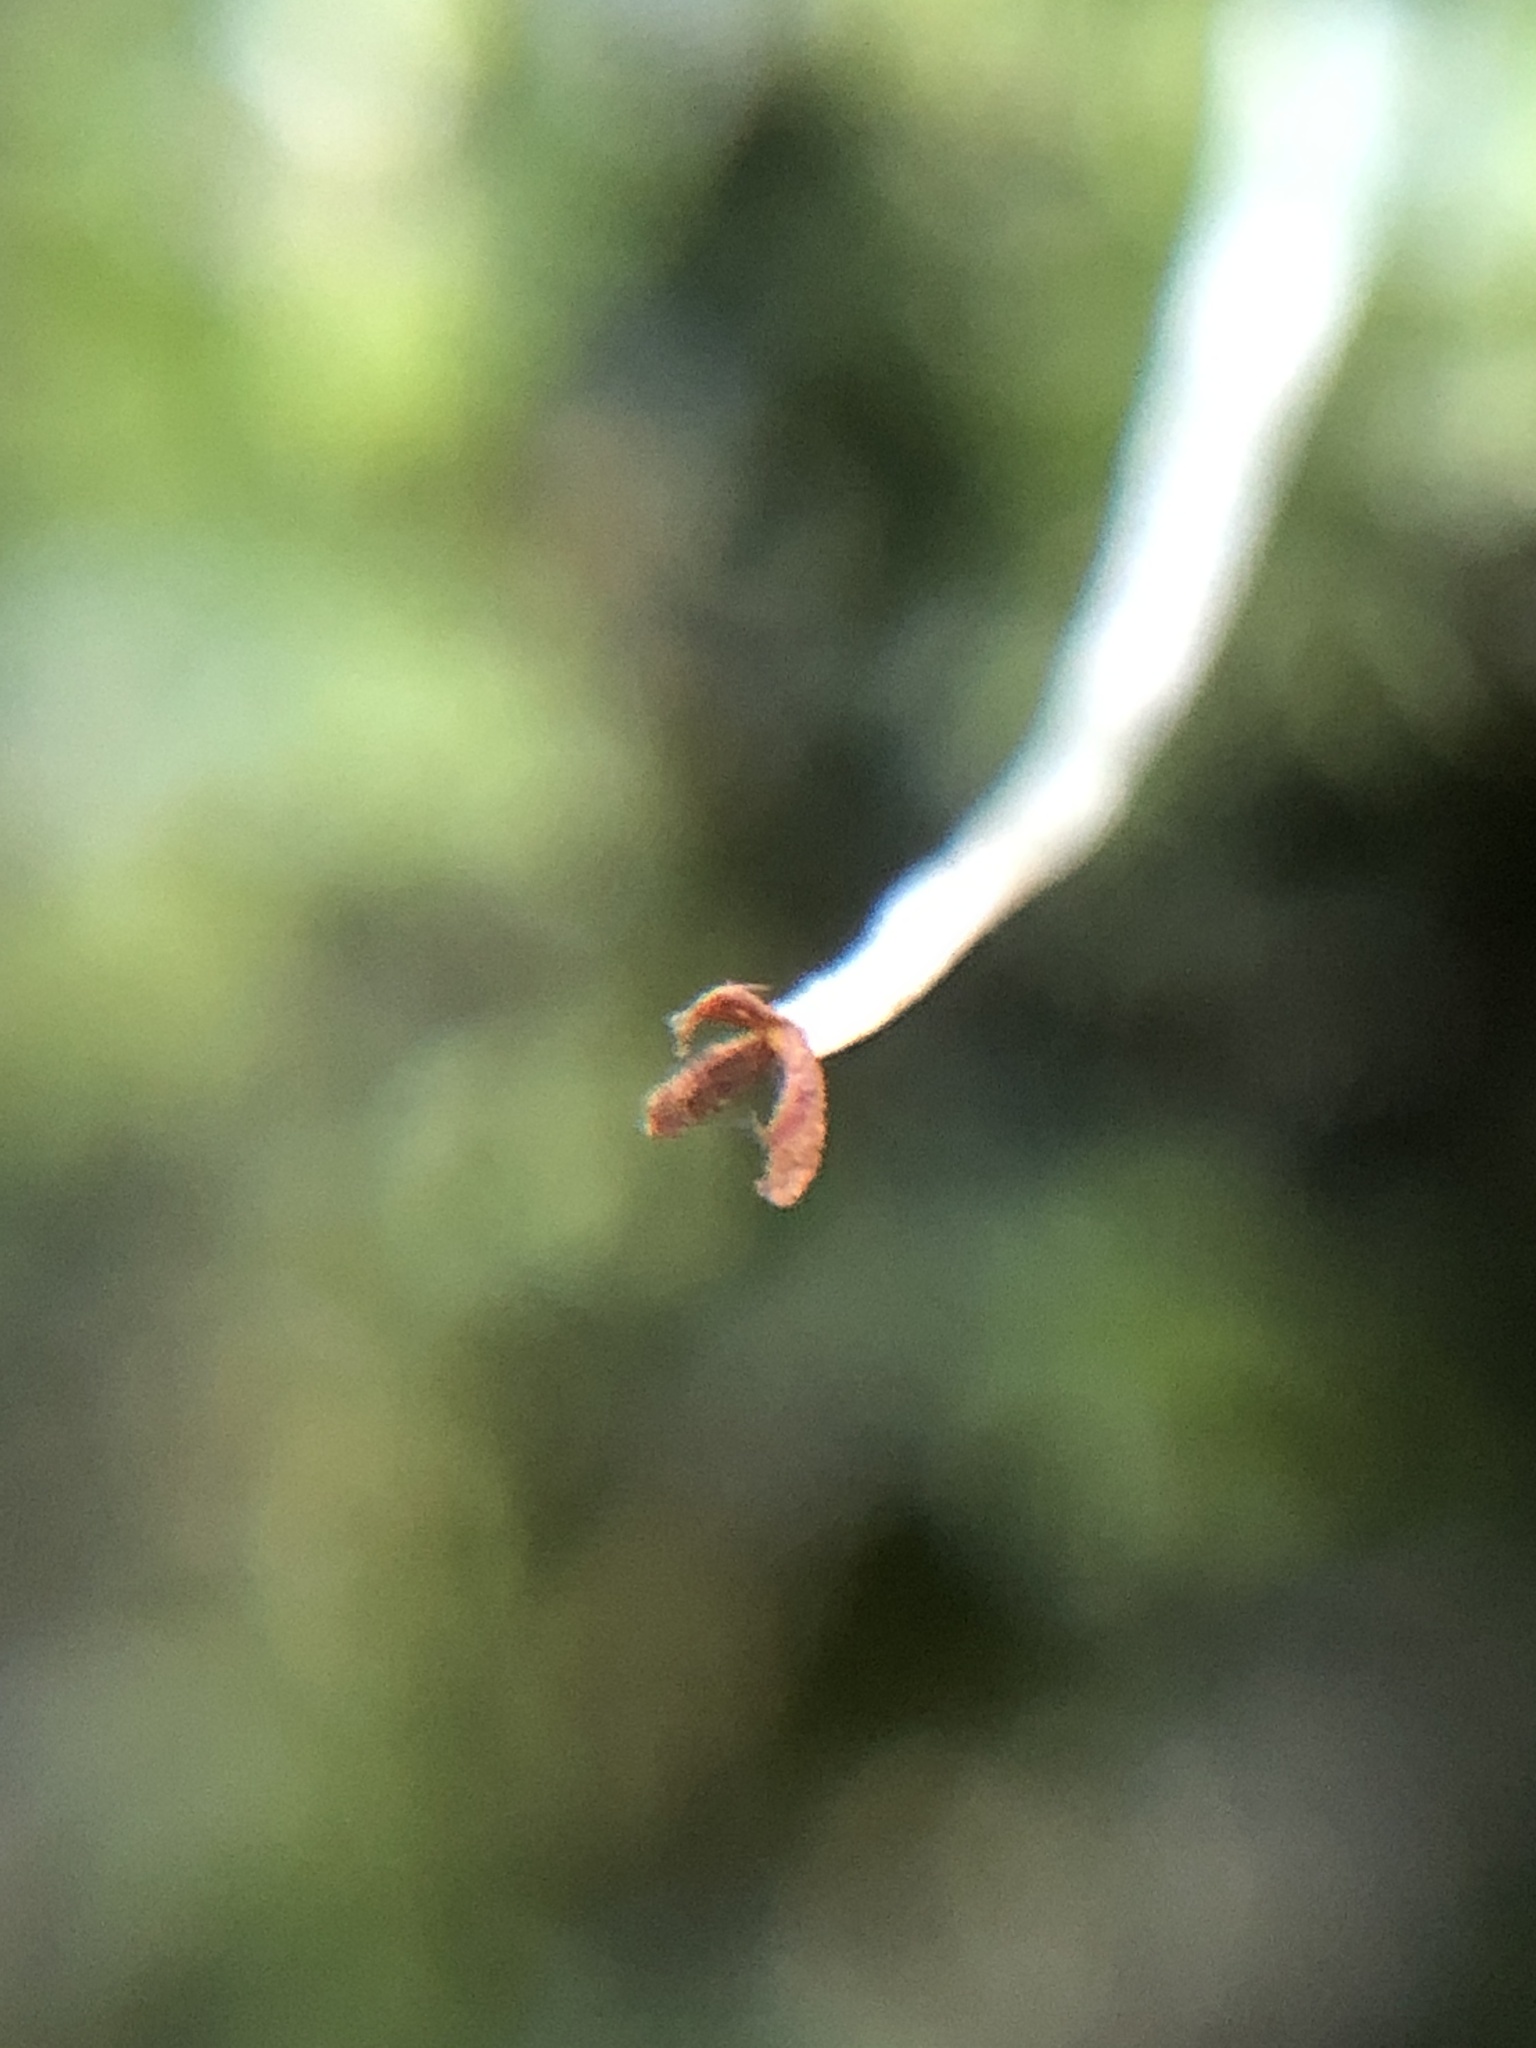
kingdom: Plantae
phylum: Marchantiophyta
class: Jungermanniopsida
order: Jungermanniales
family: Lophocoleaceae
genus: Lophocolea
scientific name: Lophocolea heterophylla
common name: Variable-leaved crestwort
